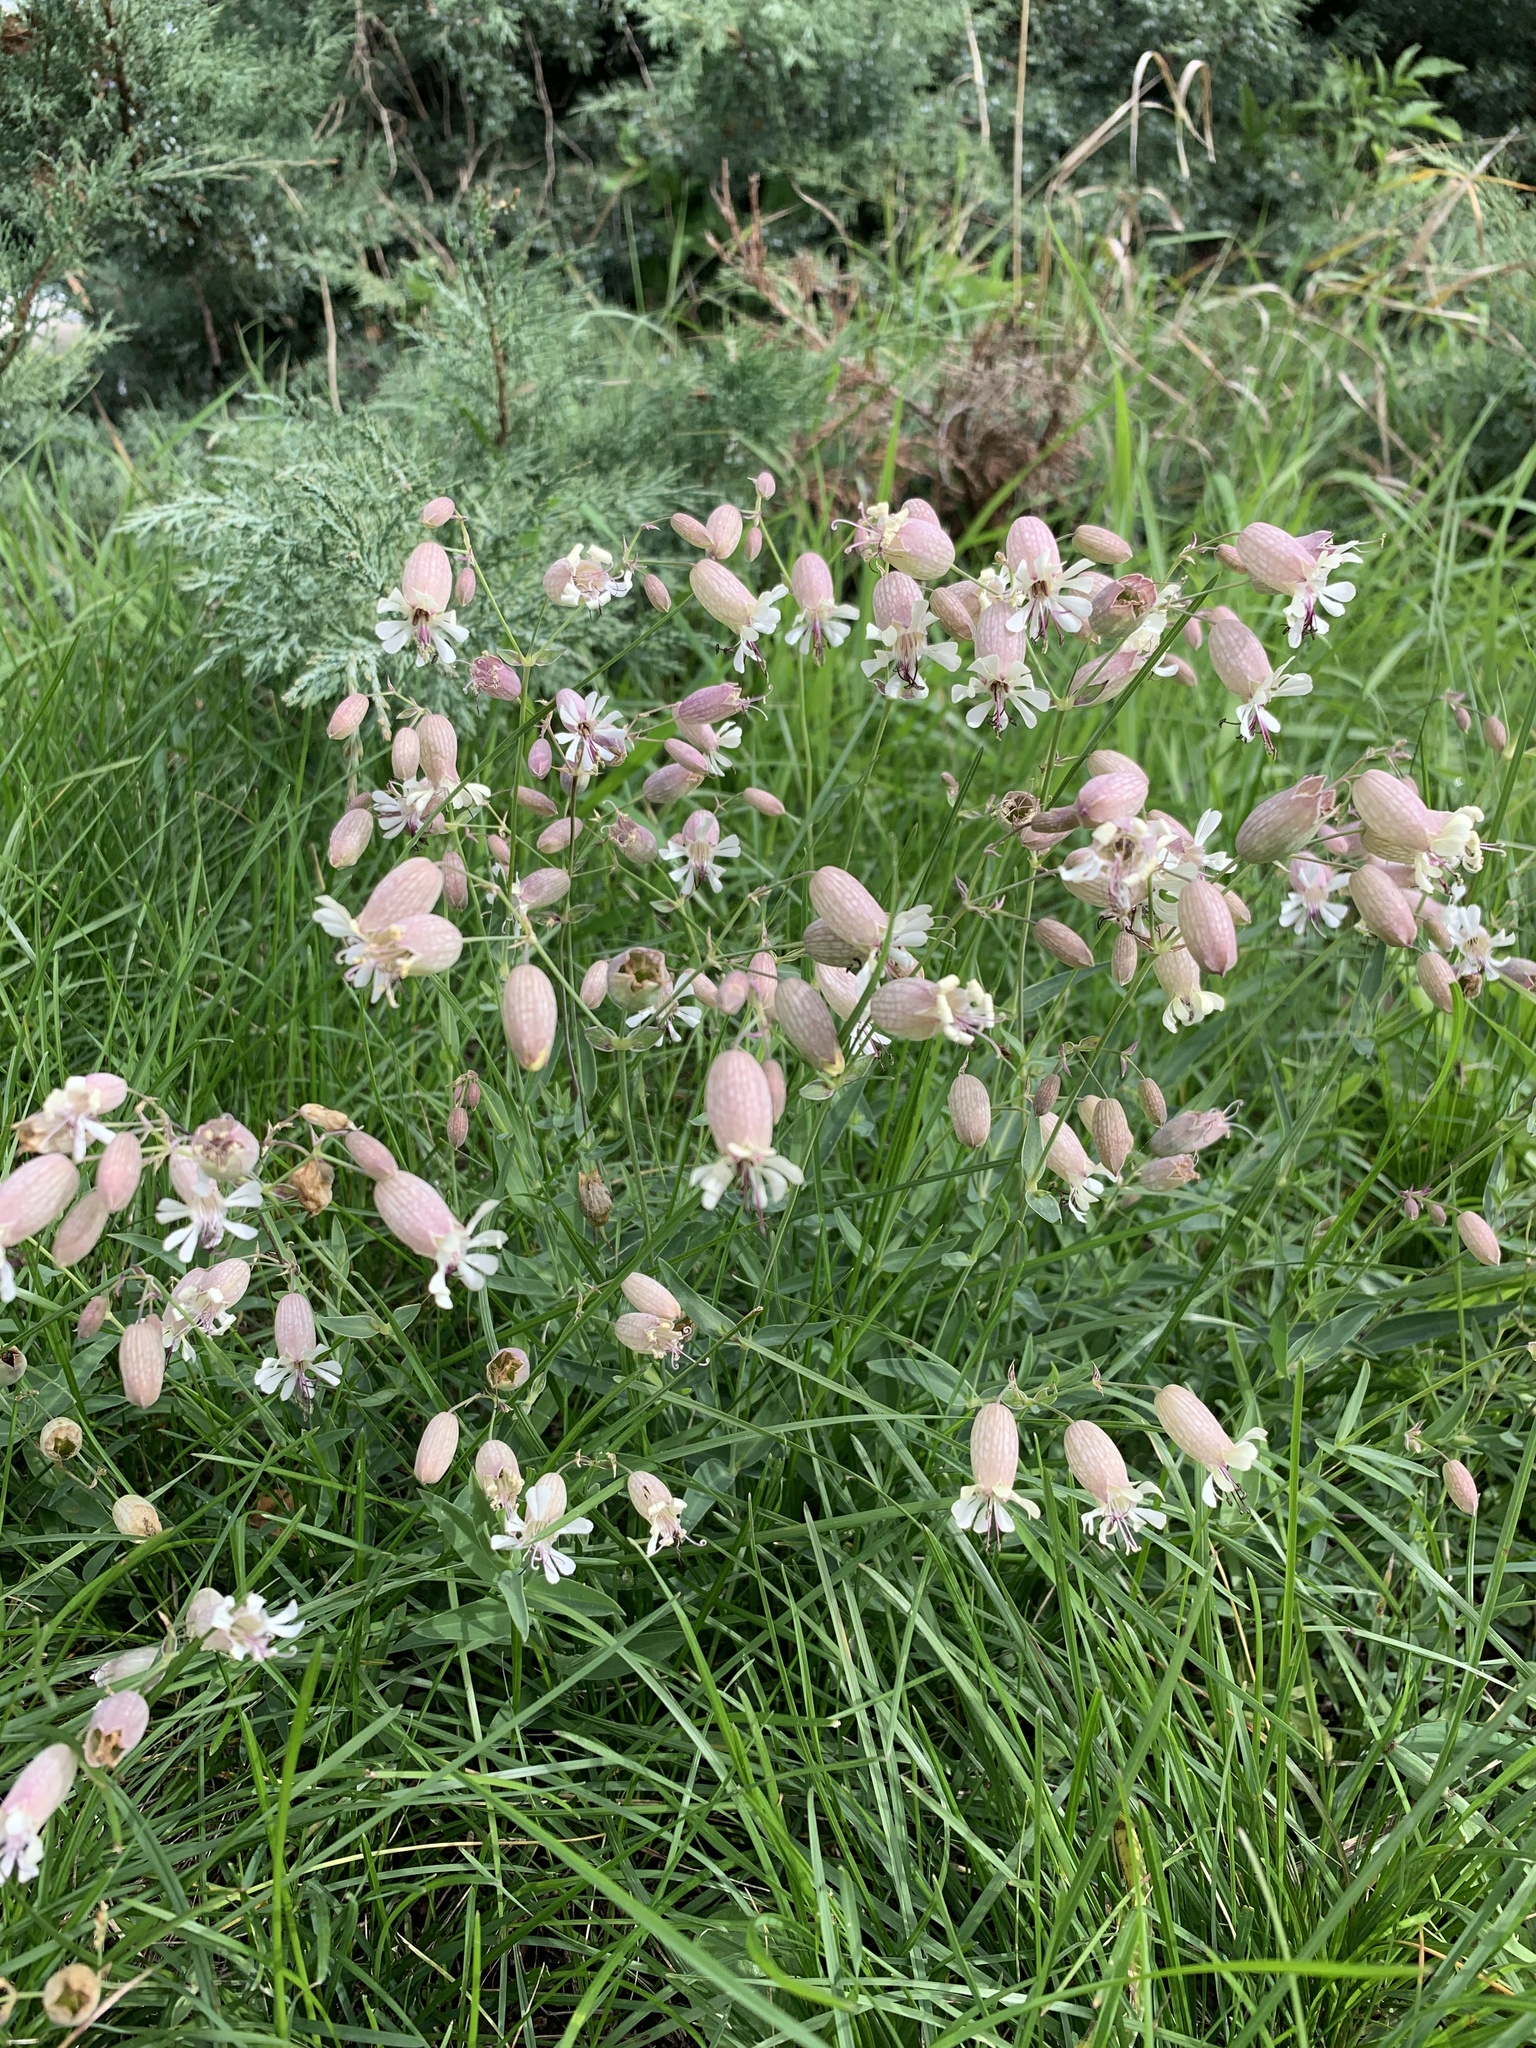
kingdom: Plantae
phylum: Tracheophyta
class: Magnoliopsida
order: Caryophyllales
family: Caryophyllaceae
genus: Silene
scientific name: Silene vulgaris
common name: Bladder campion
